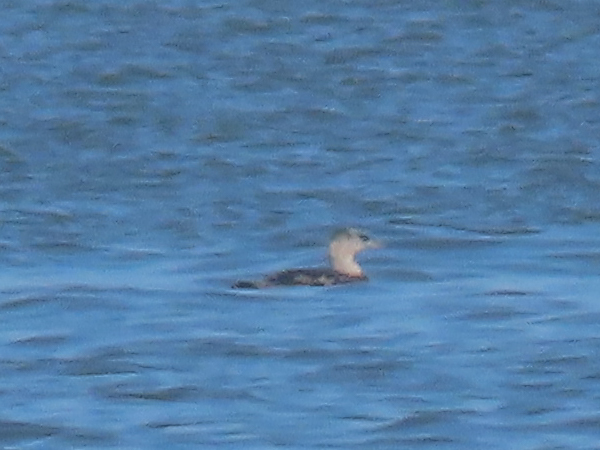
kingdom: Animalia
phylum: Chordata
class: Aves
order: Gaviiformes
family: Gaviidae
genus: Gavia
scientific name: Gavia immer
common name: Common loon
